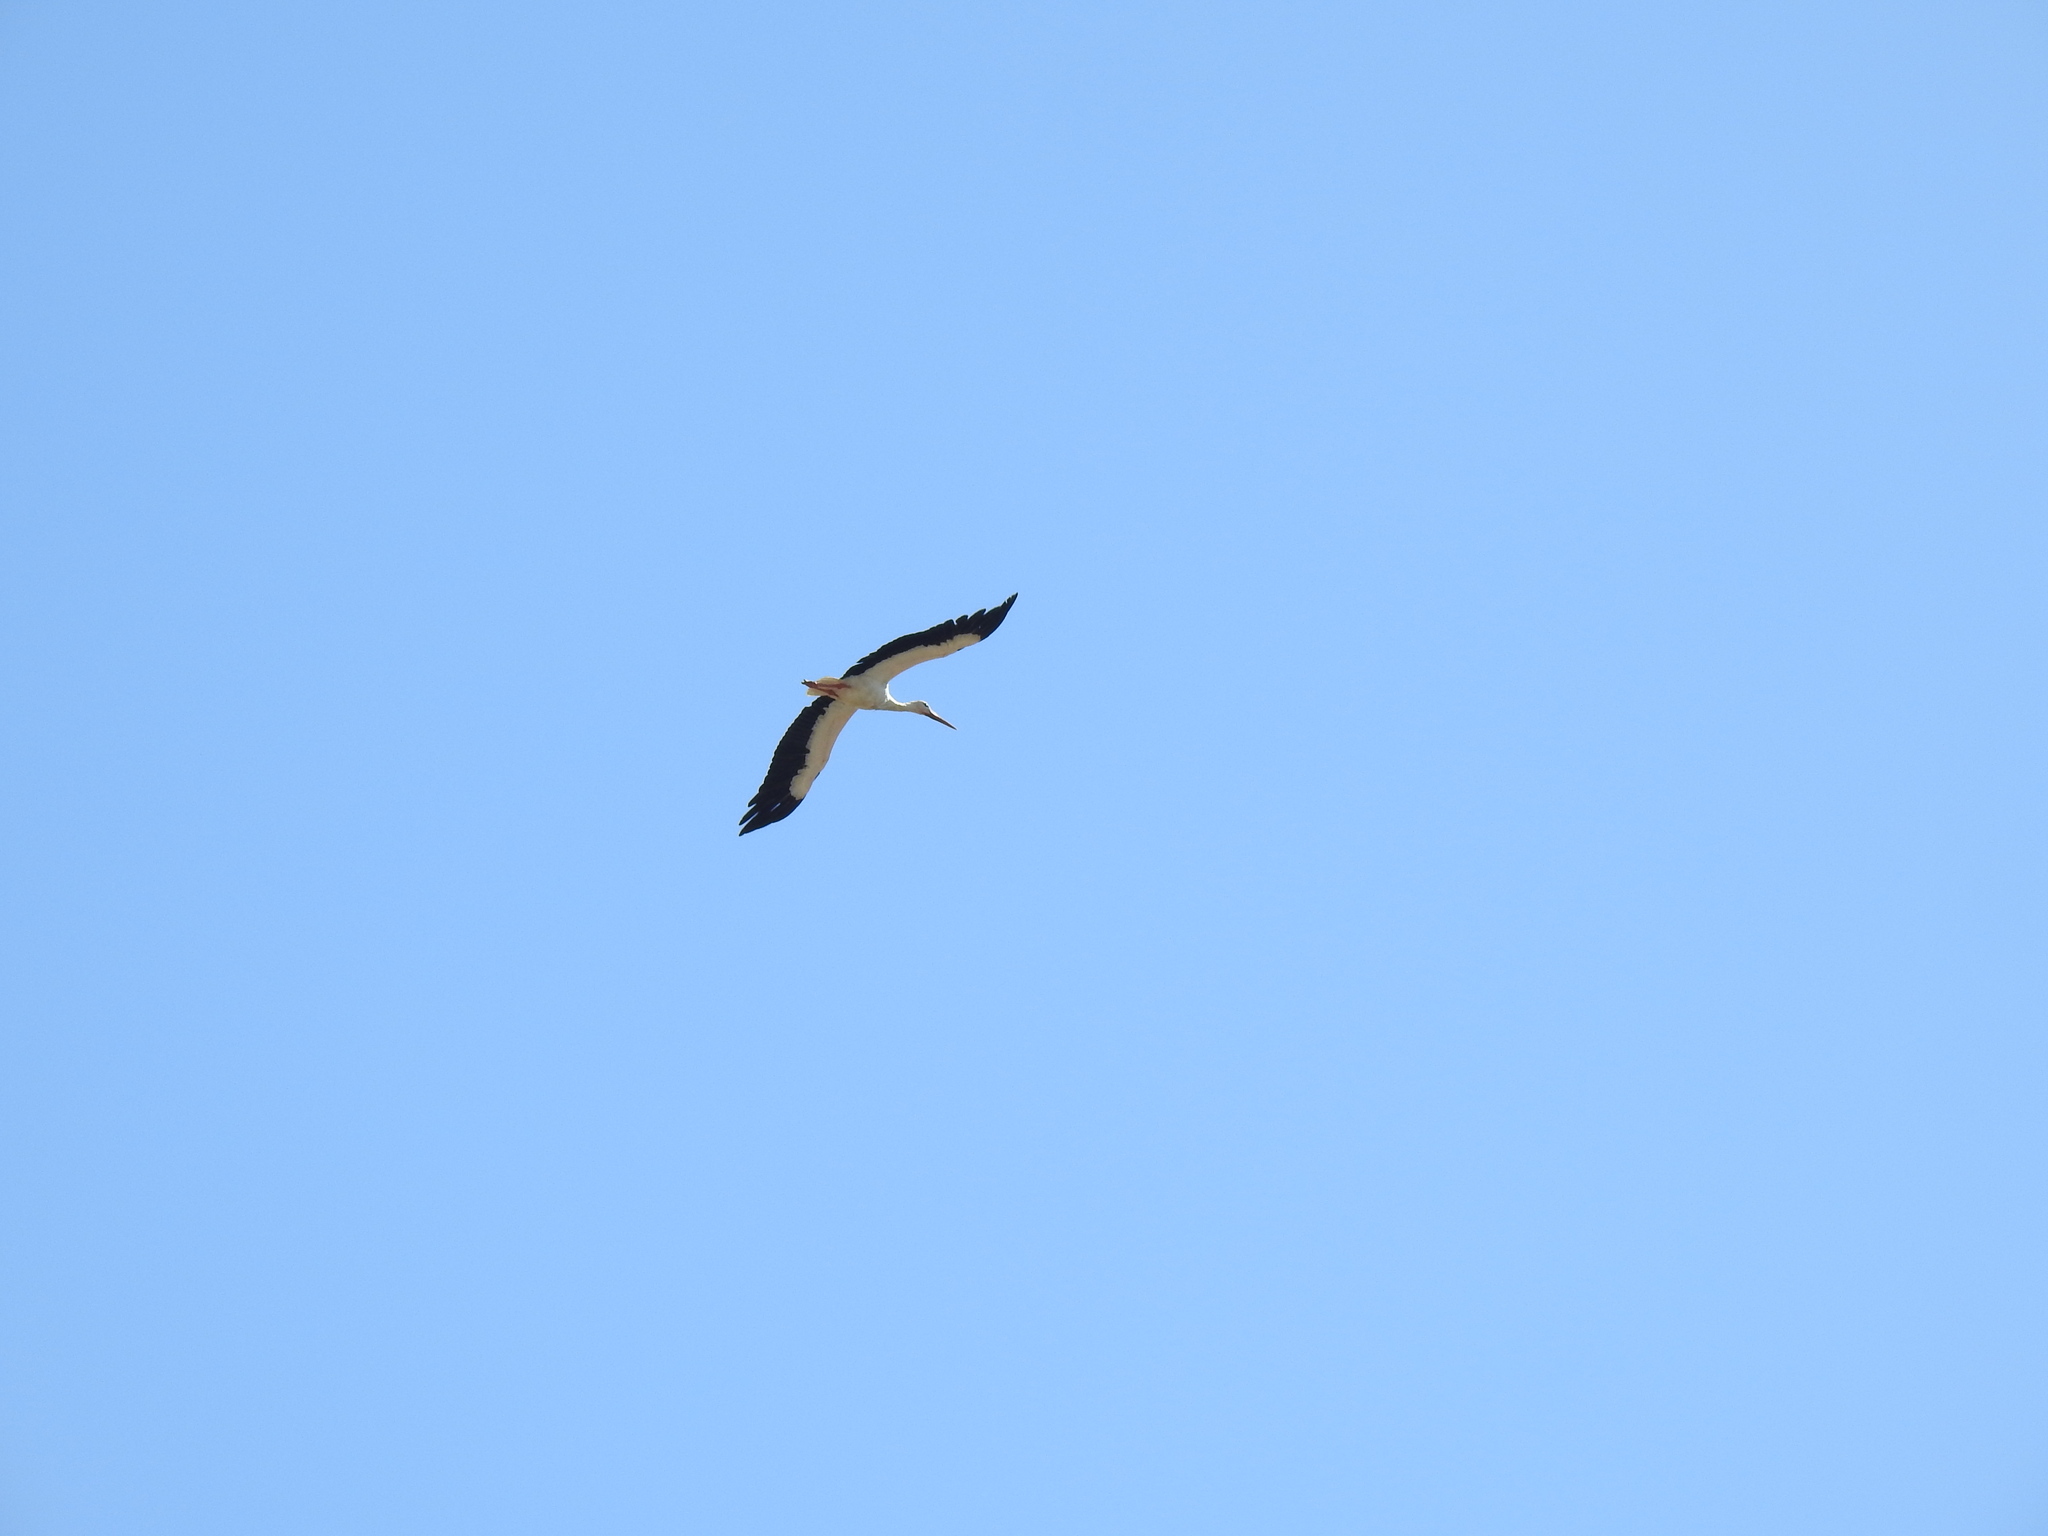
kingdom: Animalia
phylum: Chordata
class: Aves
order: Ciconiiformes
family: Ciconiidae
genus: Ciconia
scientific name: Ciconia ciconia
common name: White stork
